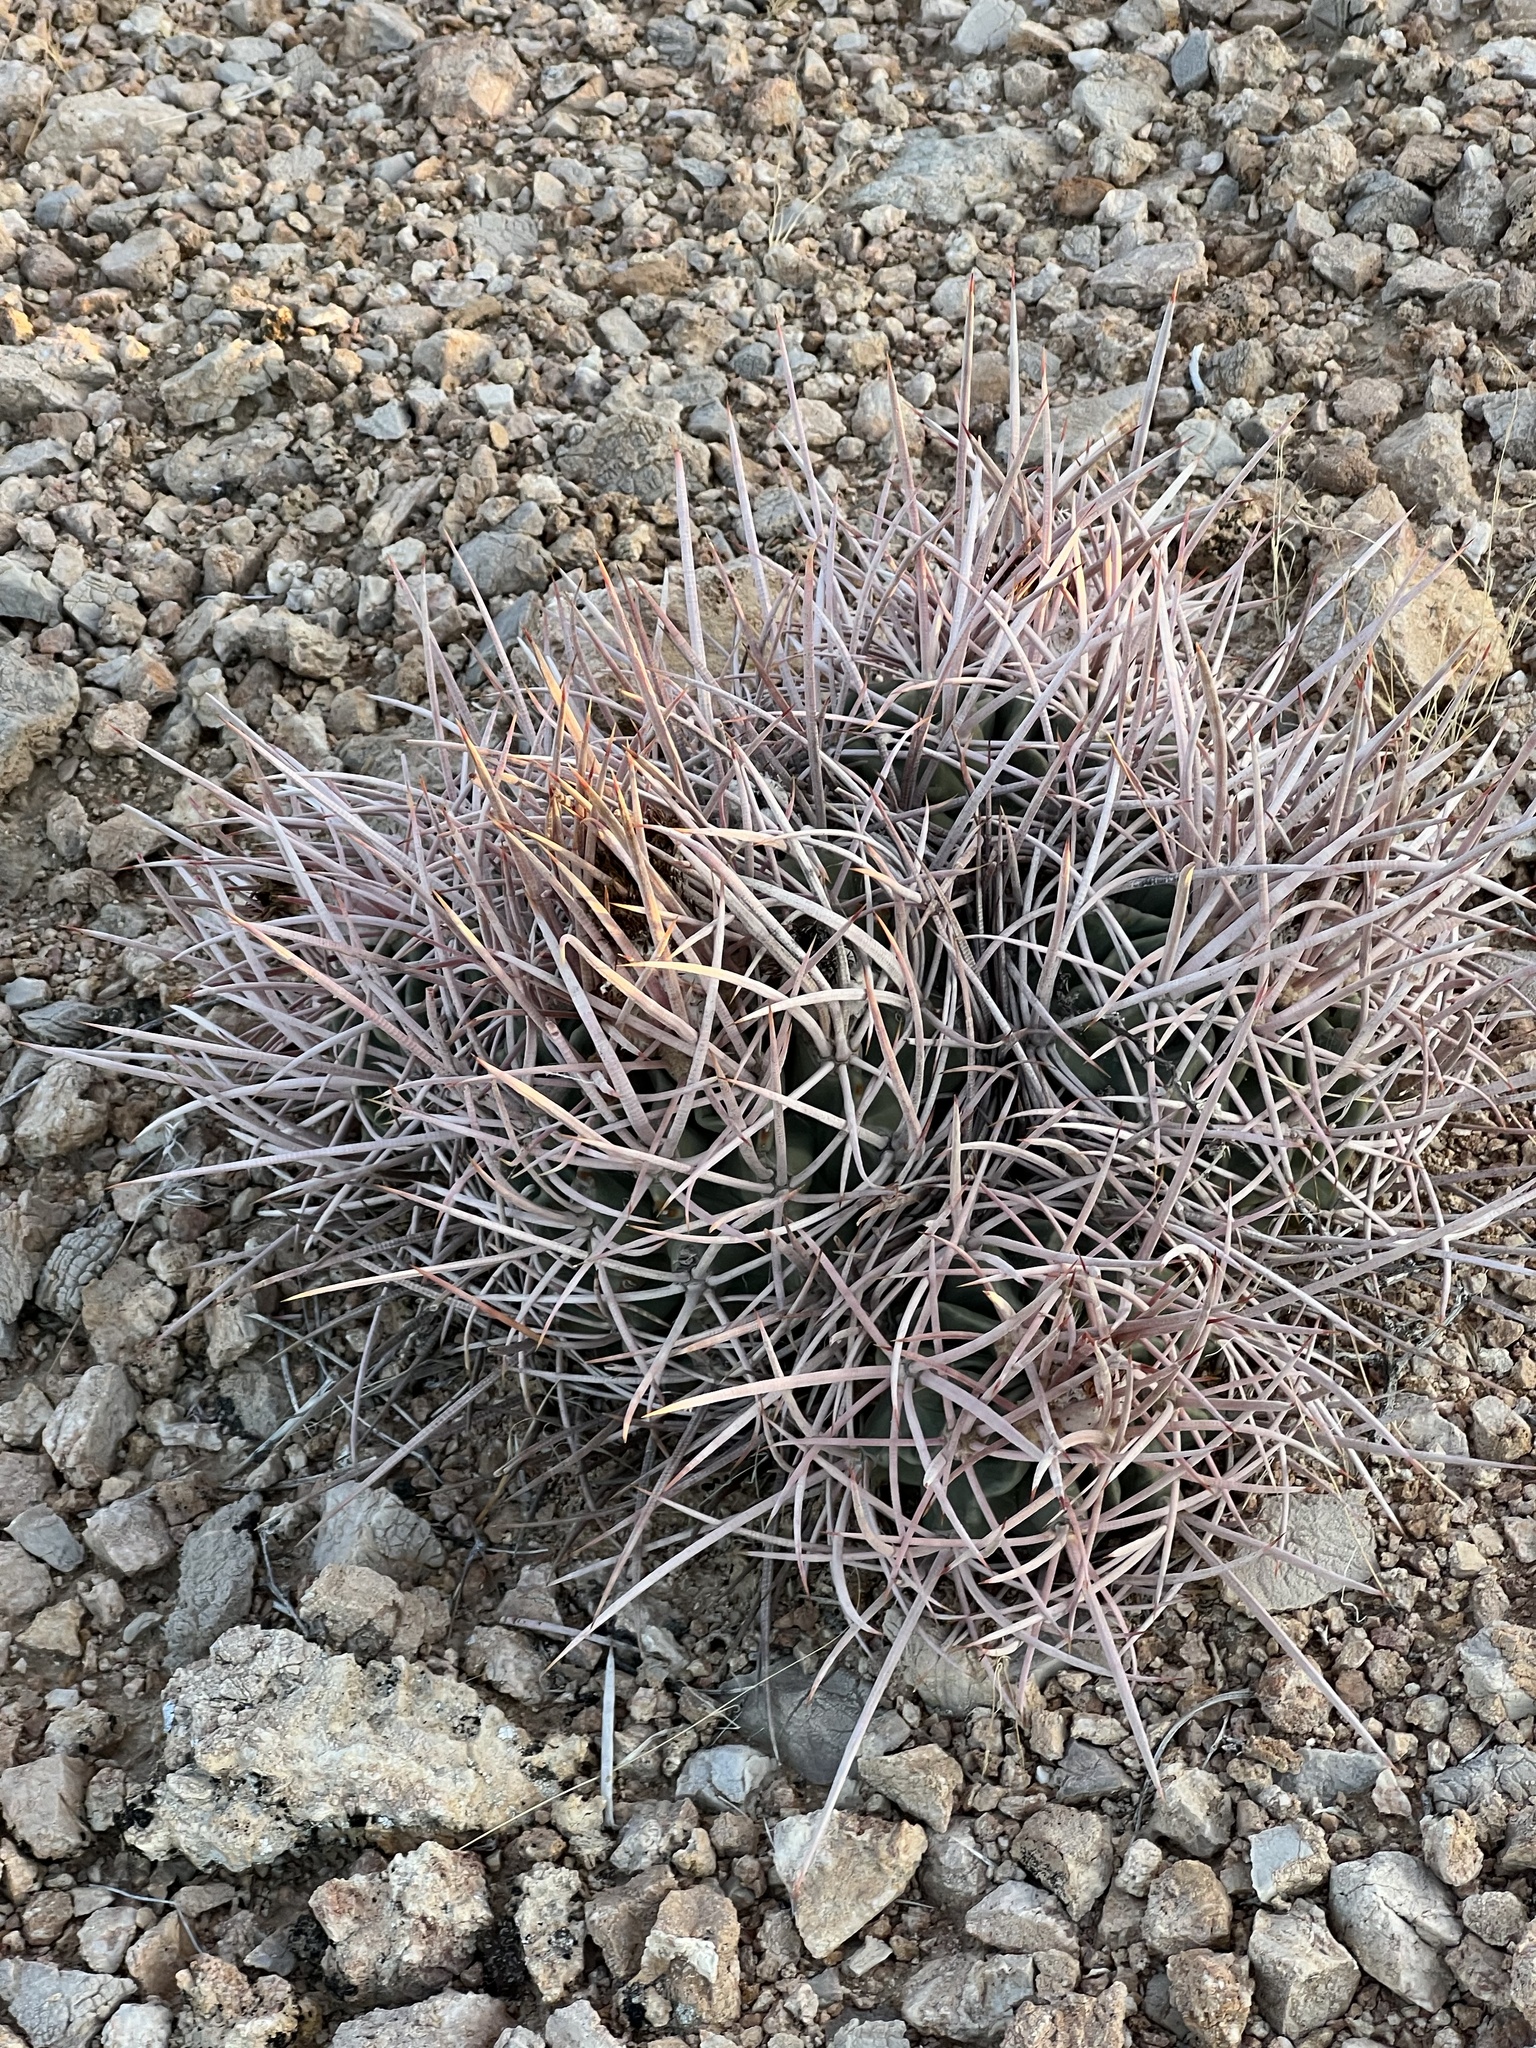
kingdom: Plantae
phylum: Tracheophyta
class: Magnoliopsida
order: Caryophyllales
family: Cactaceae
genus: Echinocactus
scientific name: Echinocactus polycephalus
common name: Cottontop cactus
